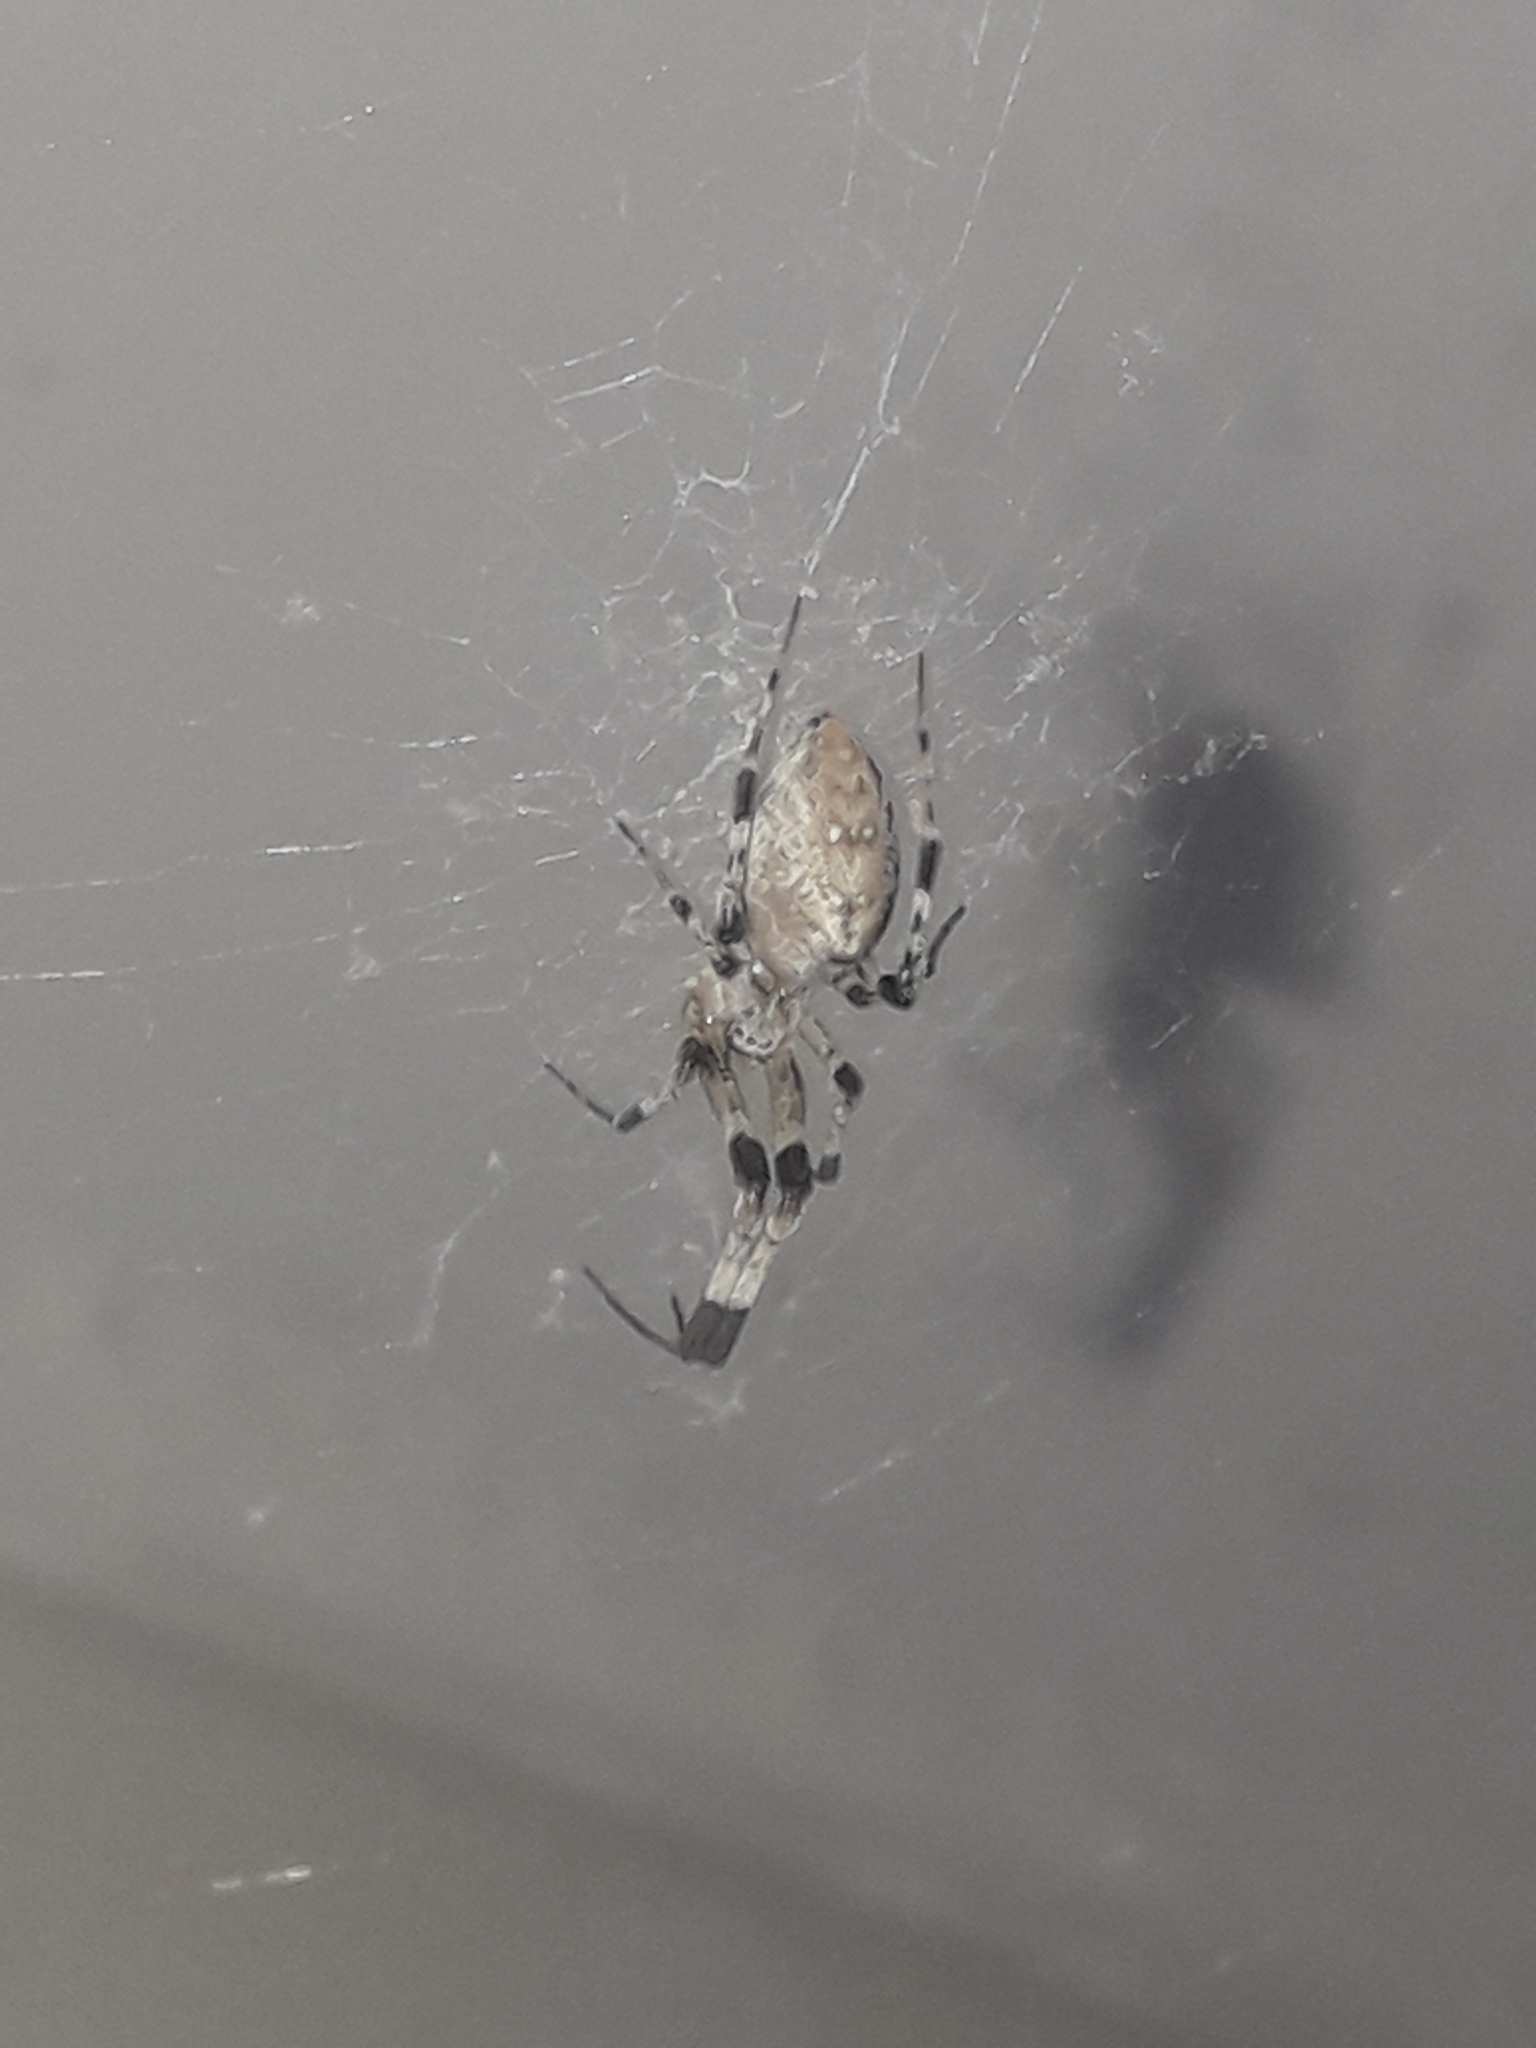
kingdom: Animalia
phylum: Arthropoda
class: Arachnida
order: Araneae
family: Uloboridae
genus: Zosis
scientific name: Zosis geniculata
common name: Hackled orb weavers
